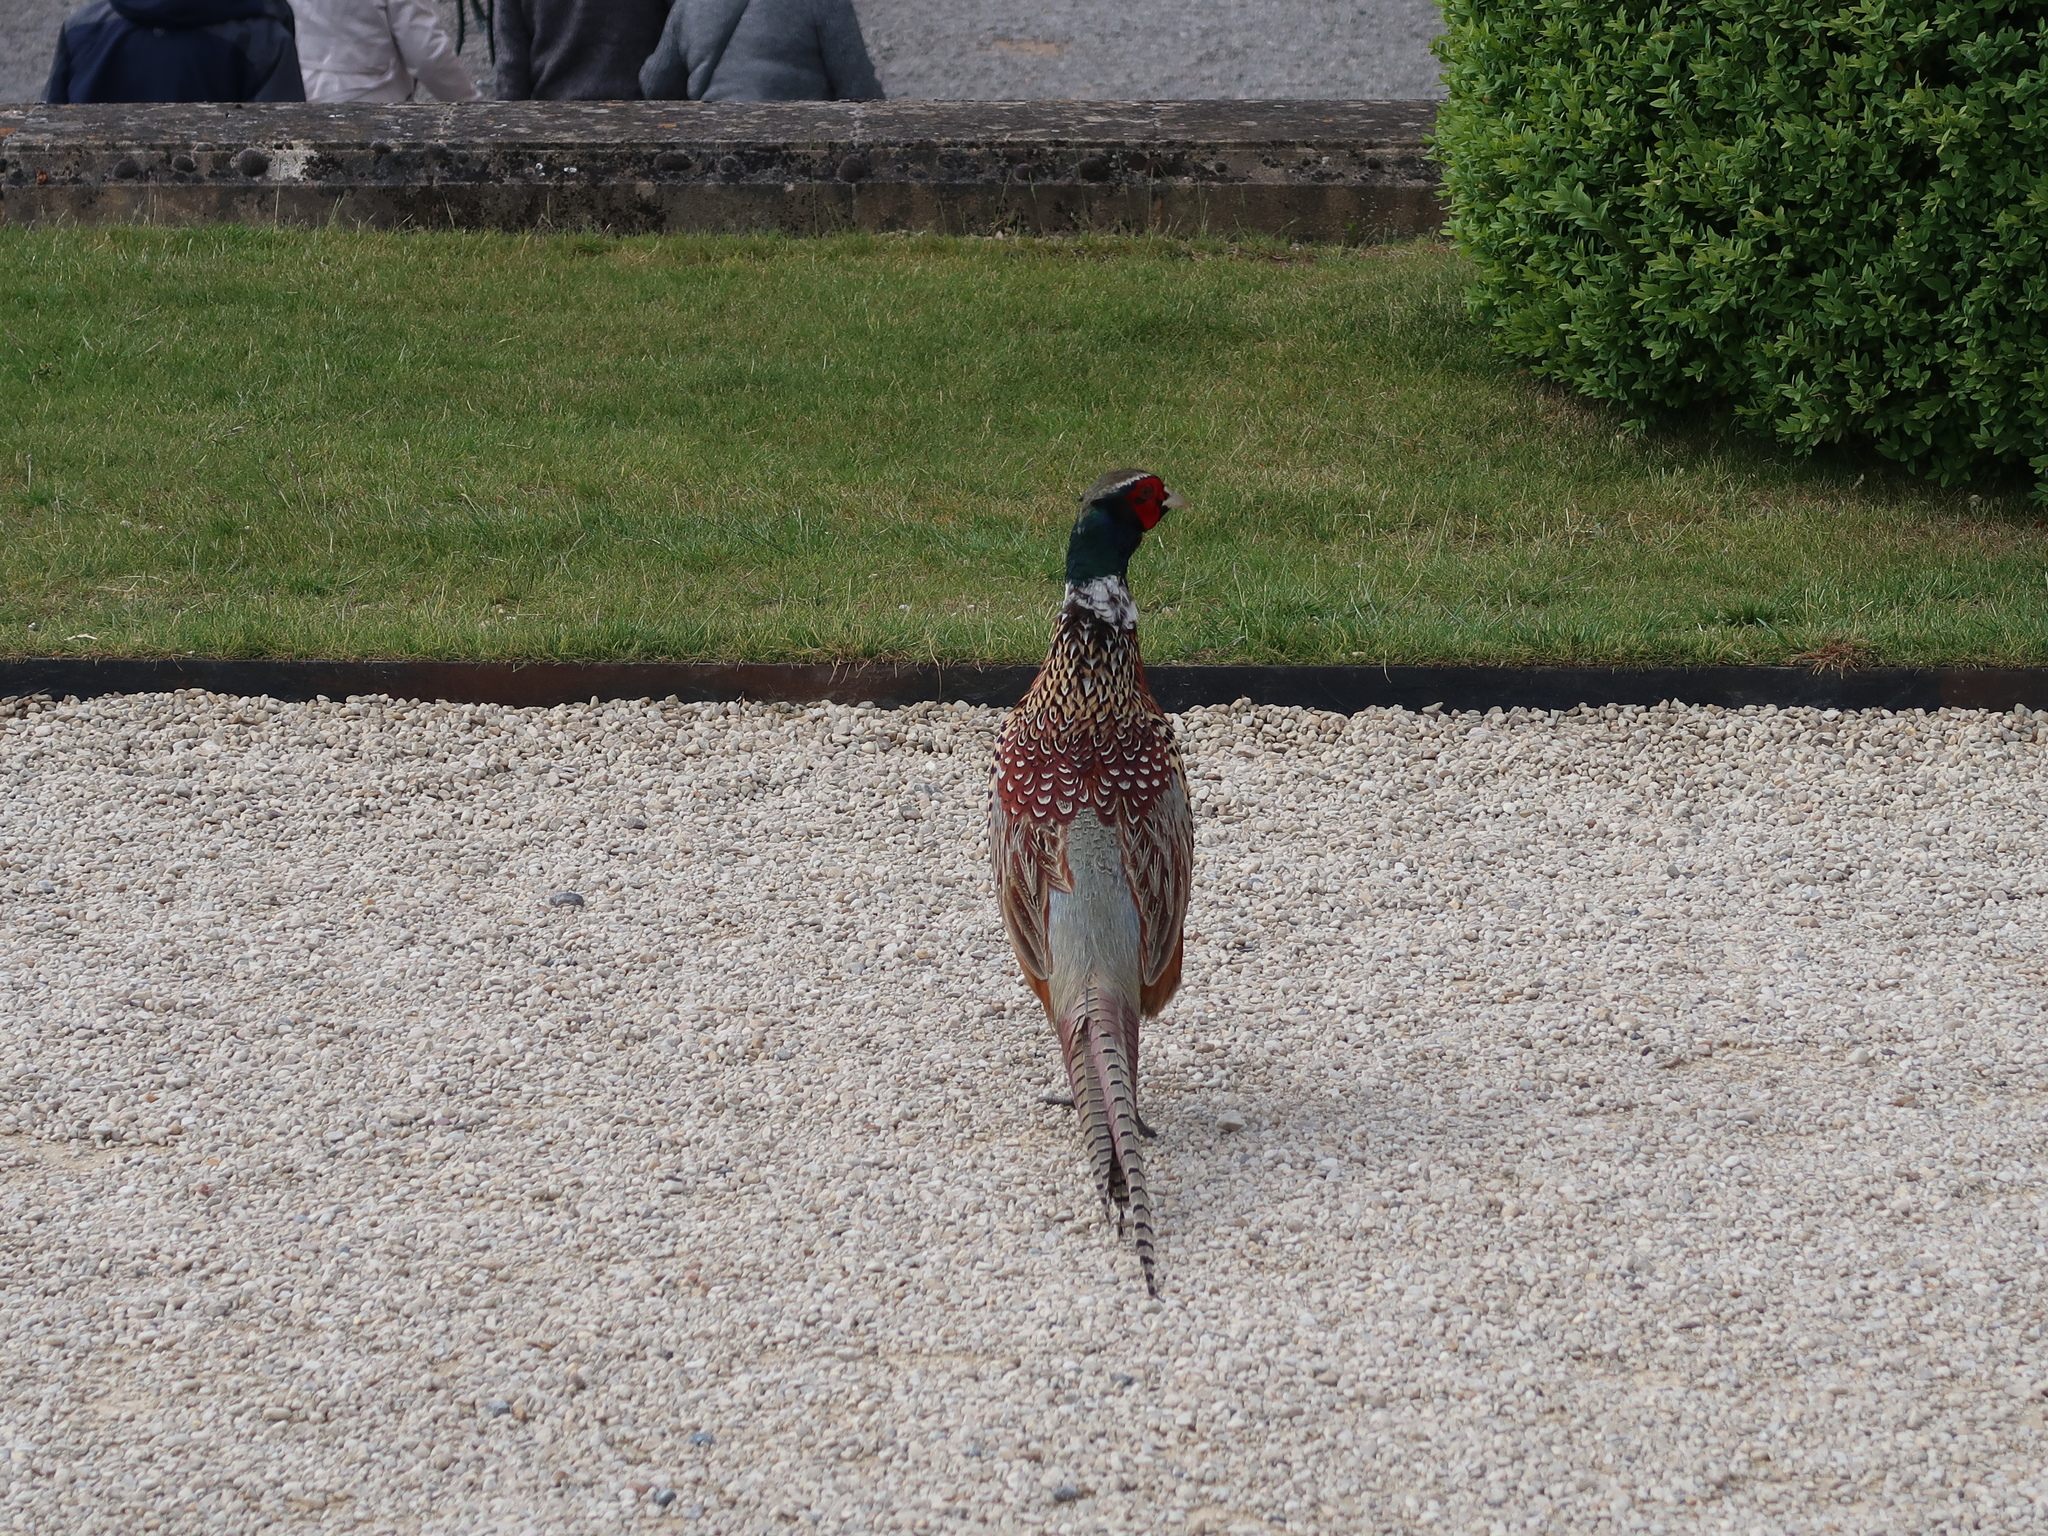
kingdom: Animalia
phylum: Chordata
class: Aves
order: Galliformes
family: Phasianidae
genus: Phasianus
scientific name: Phasianus colchicus
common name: Common pheasant
